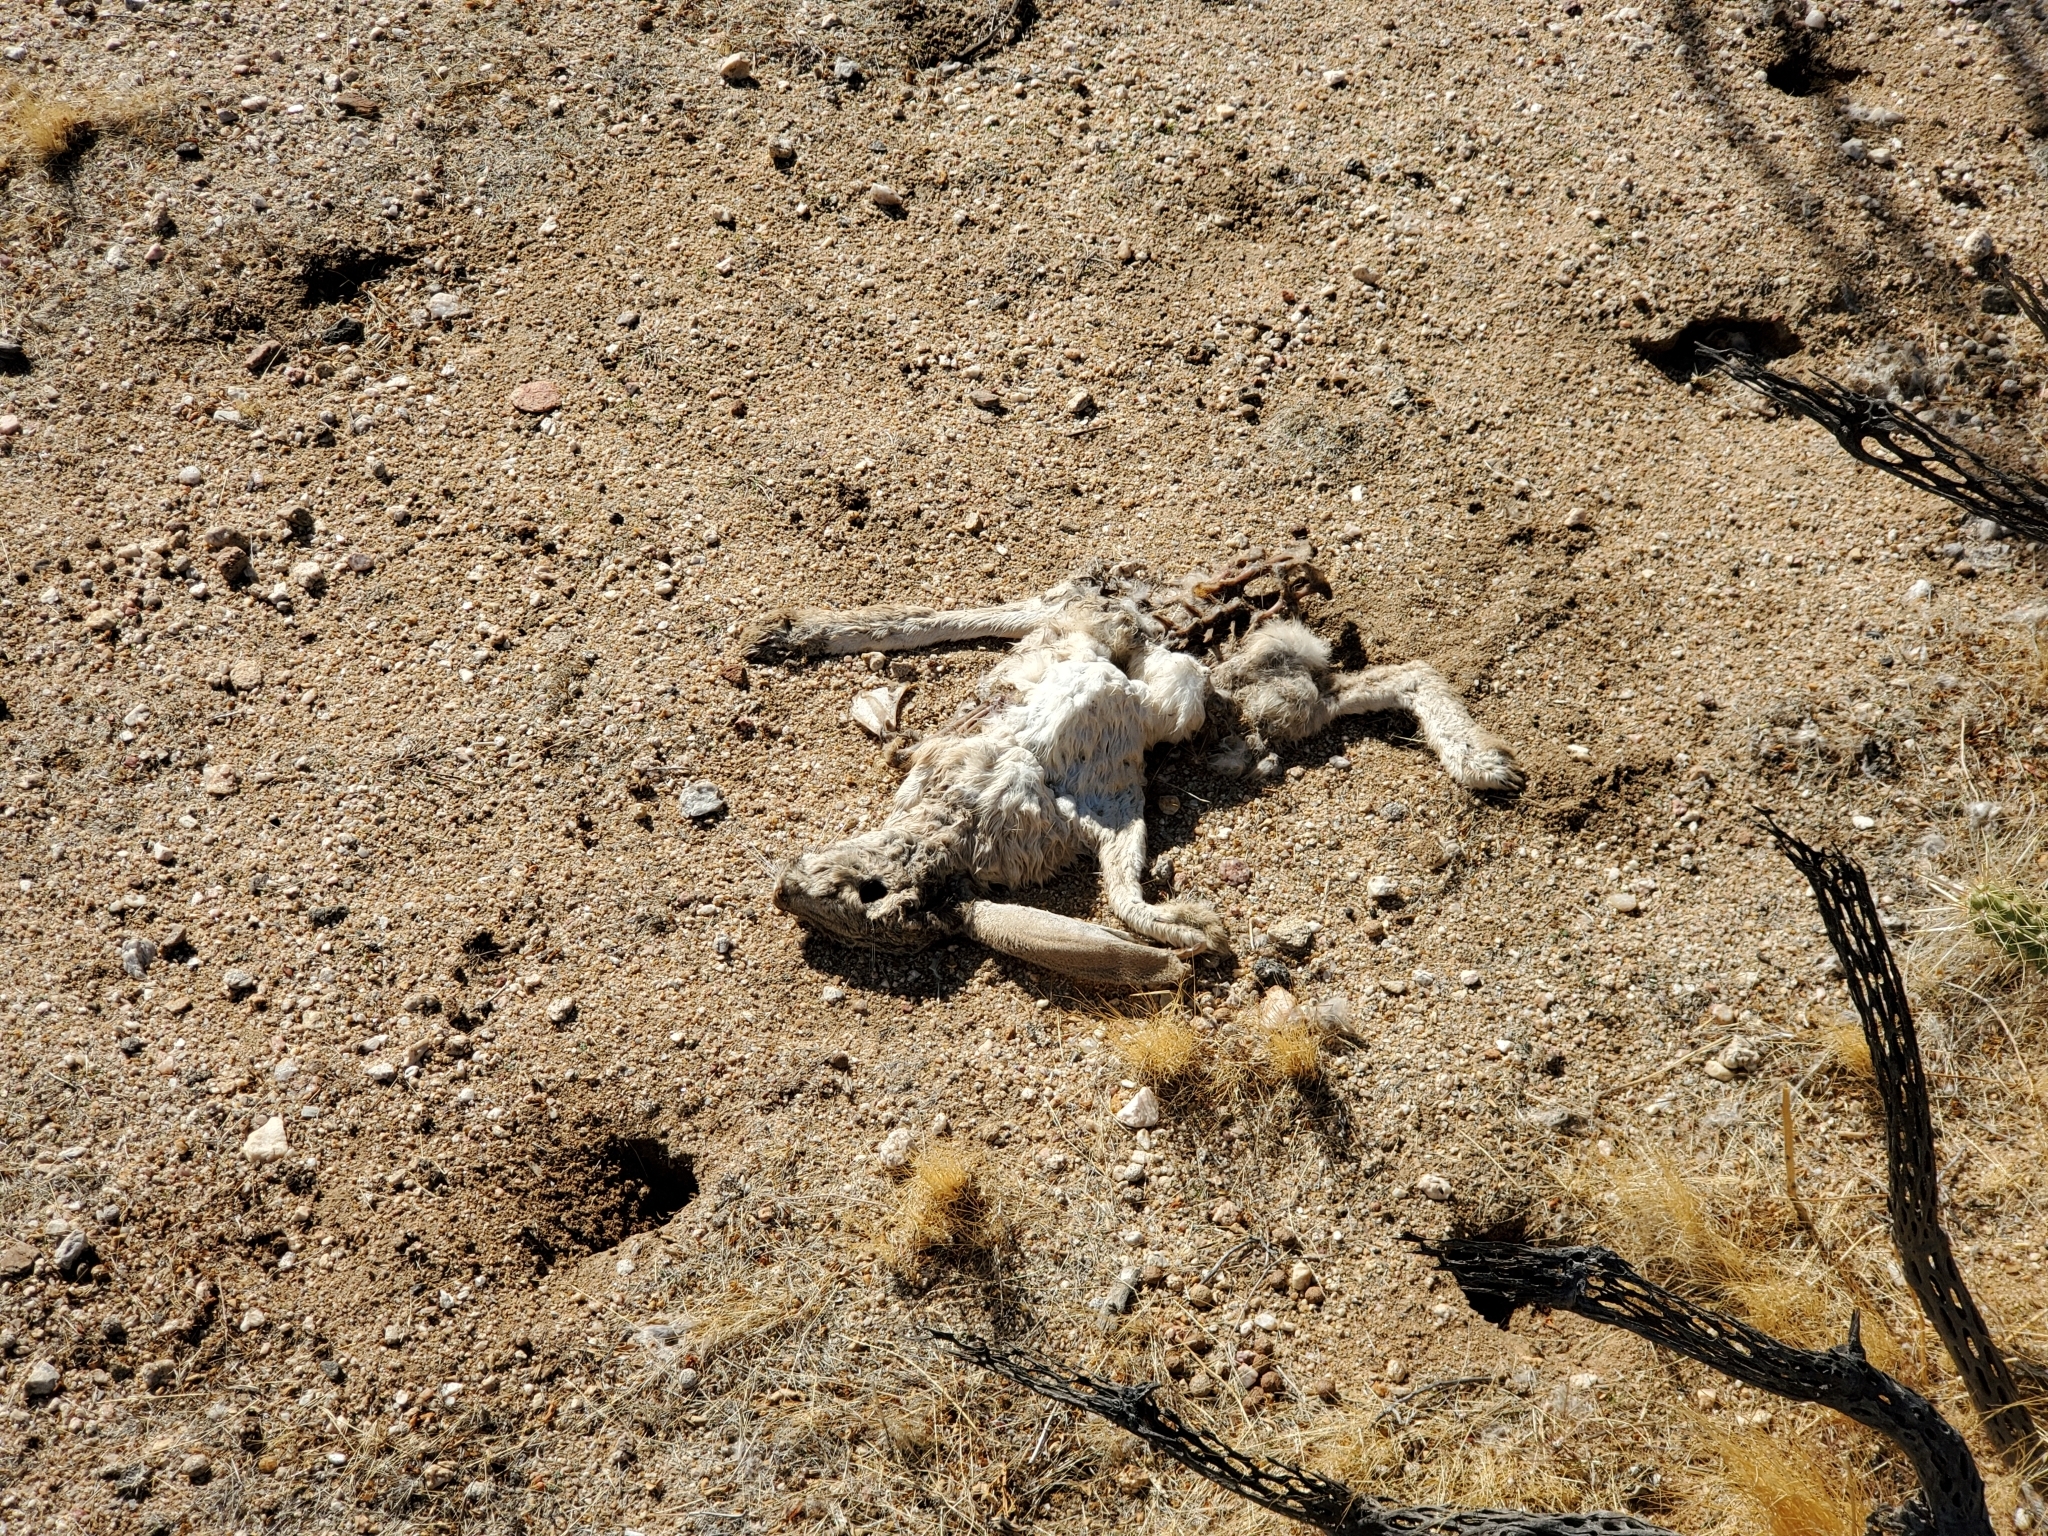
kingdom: Animalia
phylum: Chordata
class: Mammalia
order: Lagomorpha
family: Leporidae
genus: Lepus
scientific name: Lepus californicus
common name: Black-tailed jackrabbit
